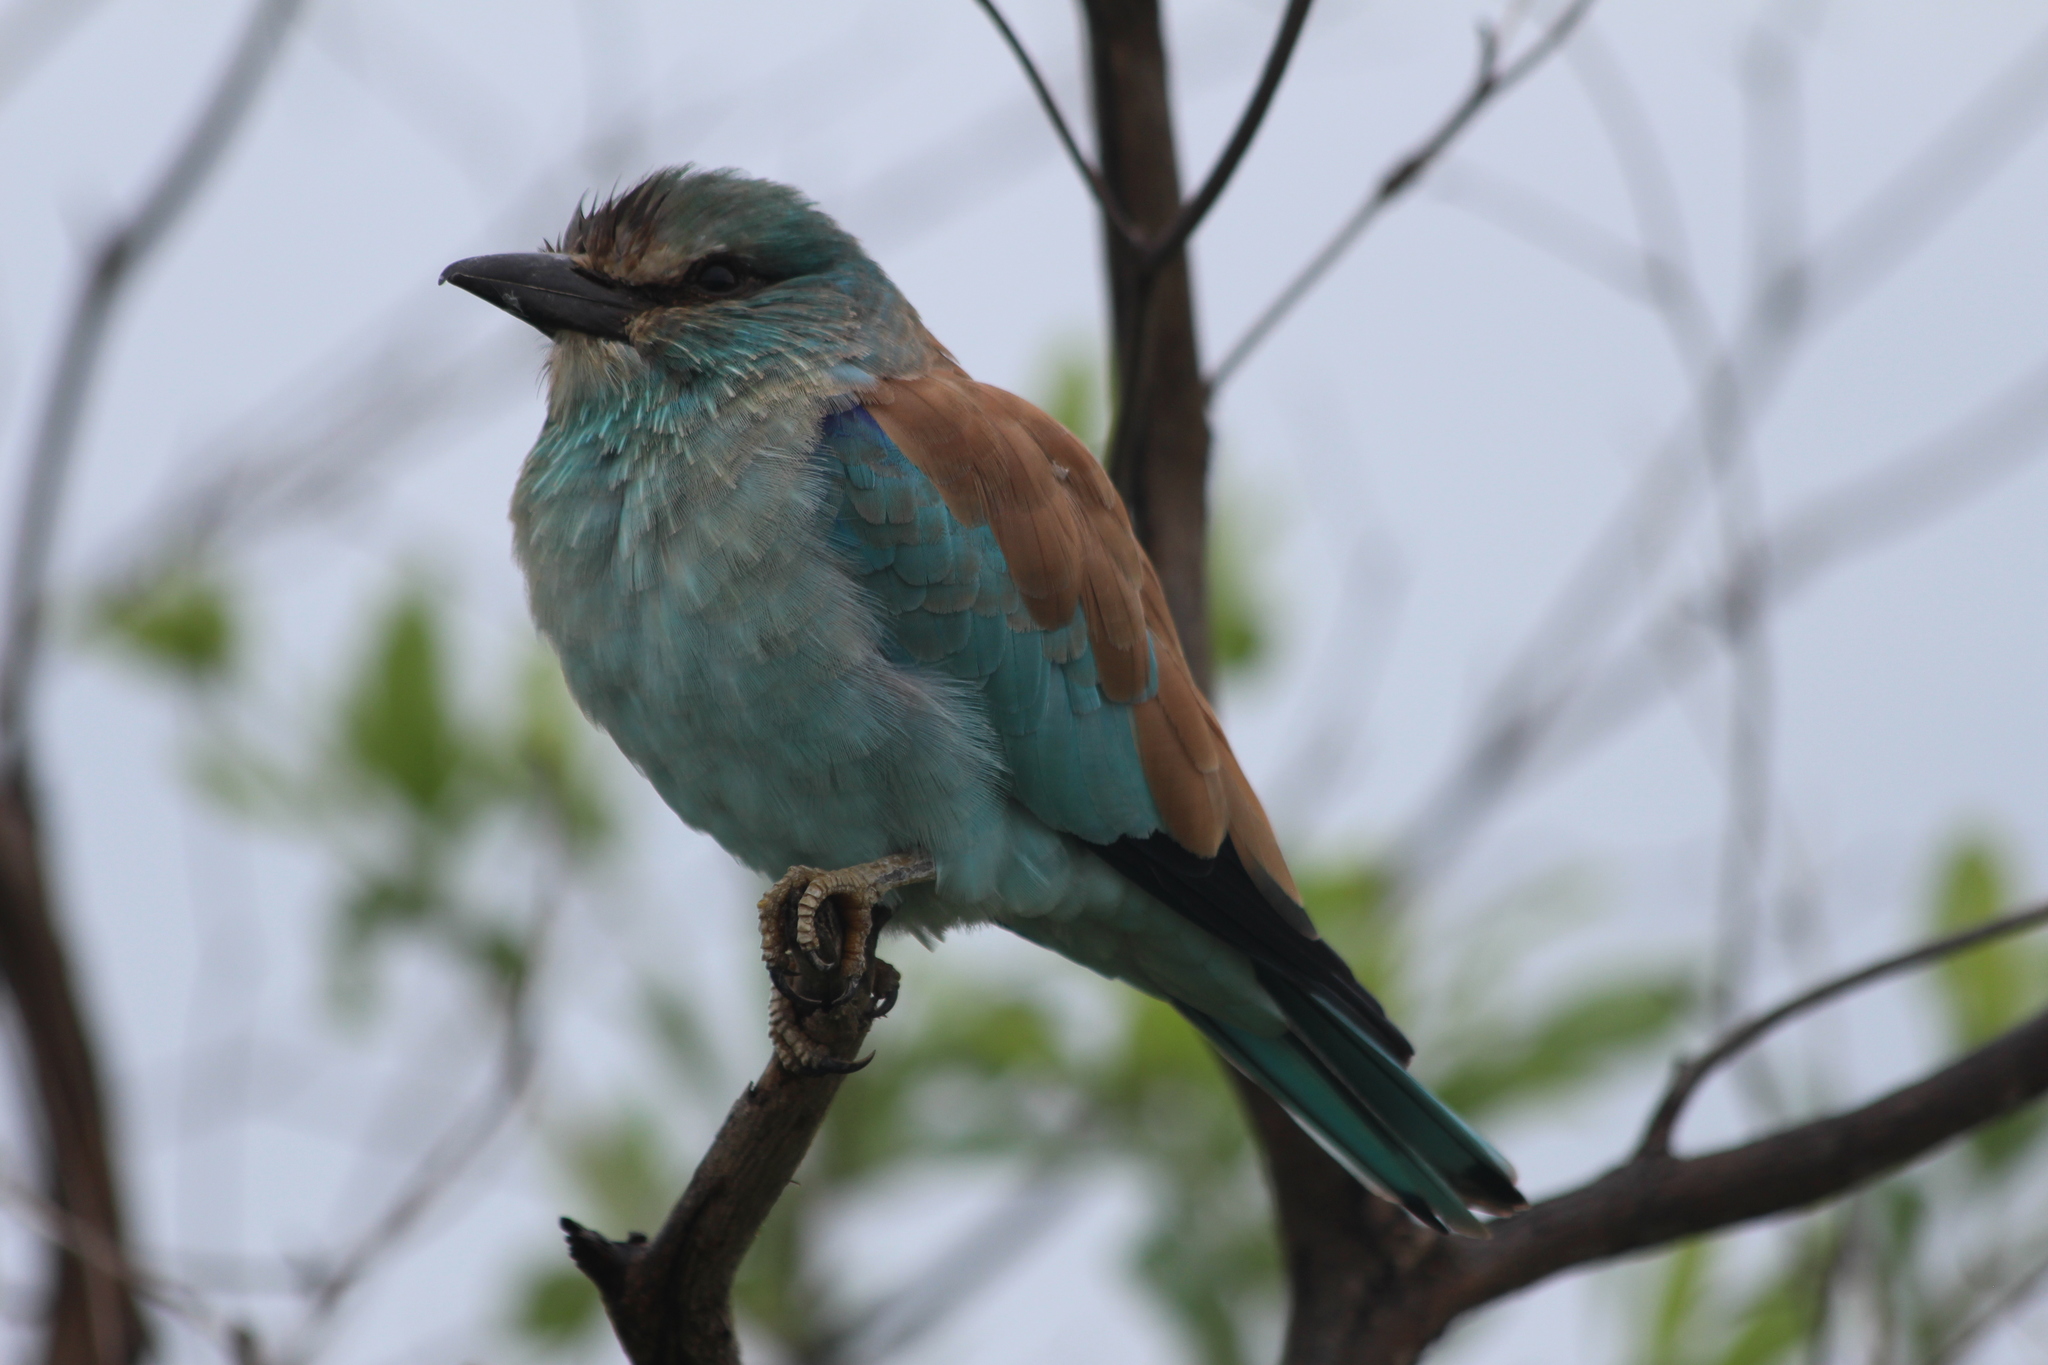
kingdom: Animalia
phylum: Chordata
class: Aves
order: Coraciiformes
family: Coraciidae
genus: Coracias
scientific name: Coracias garrulus
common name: European roller
